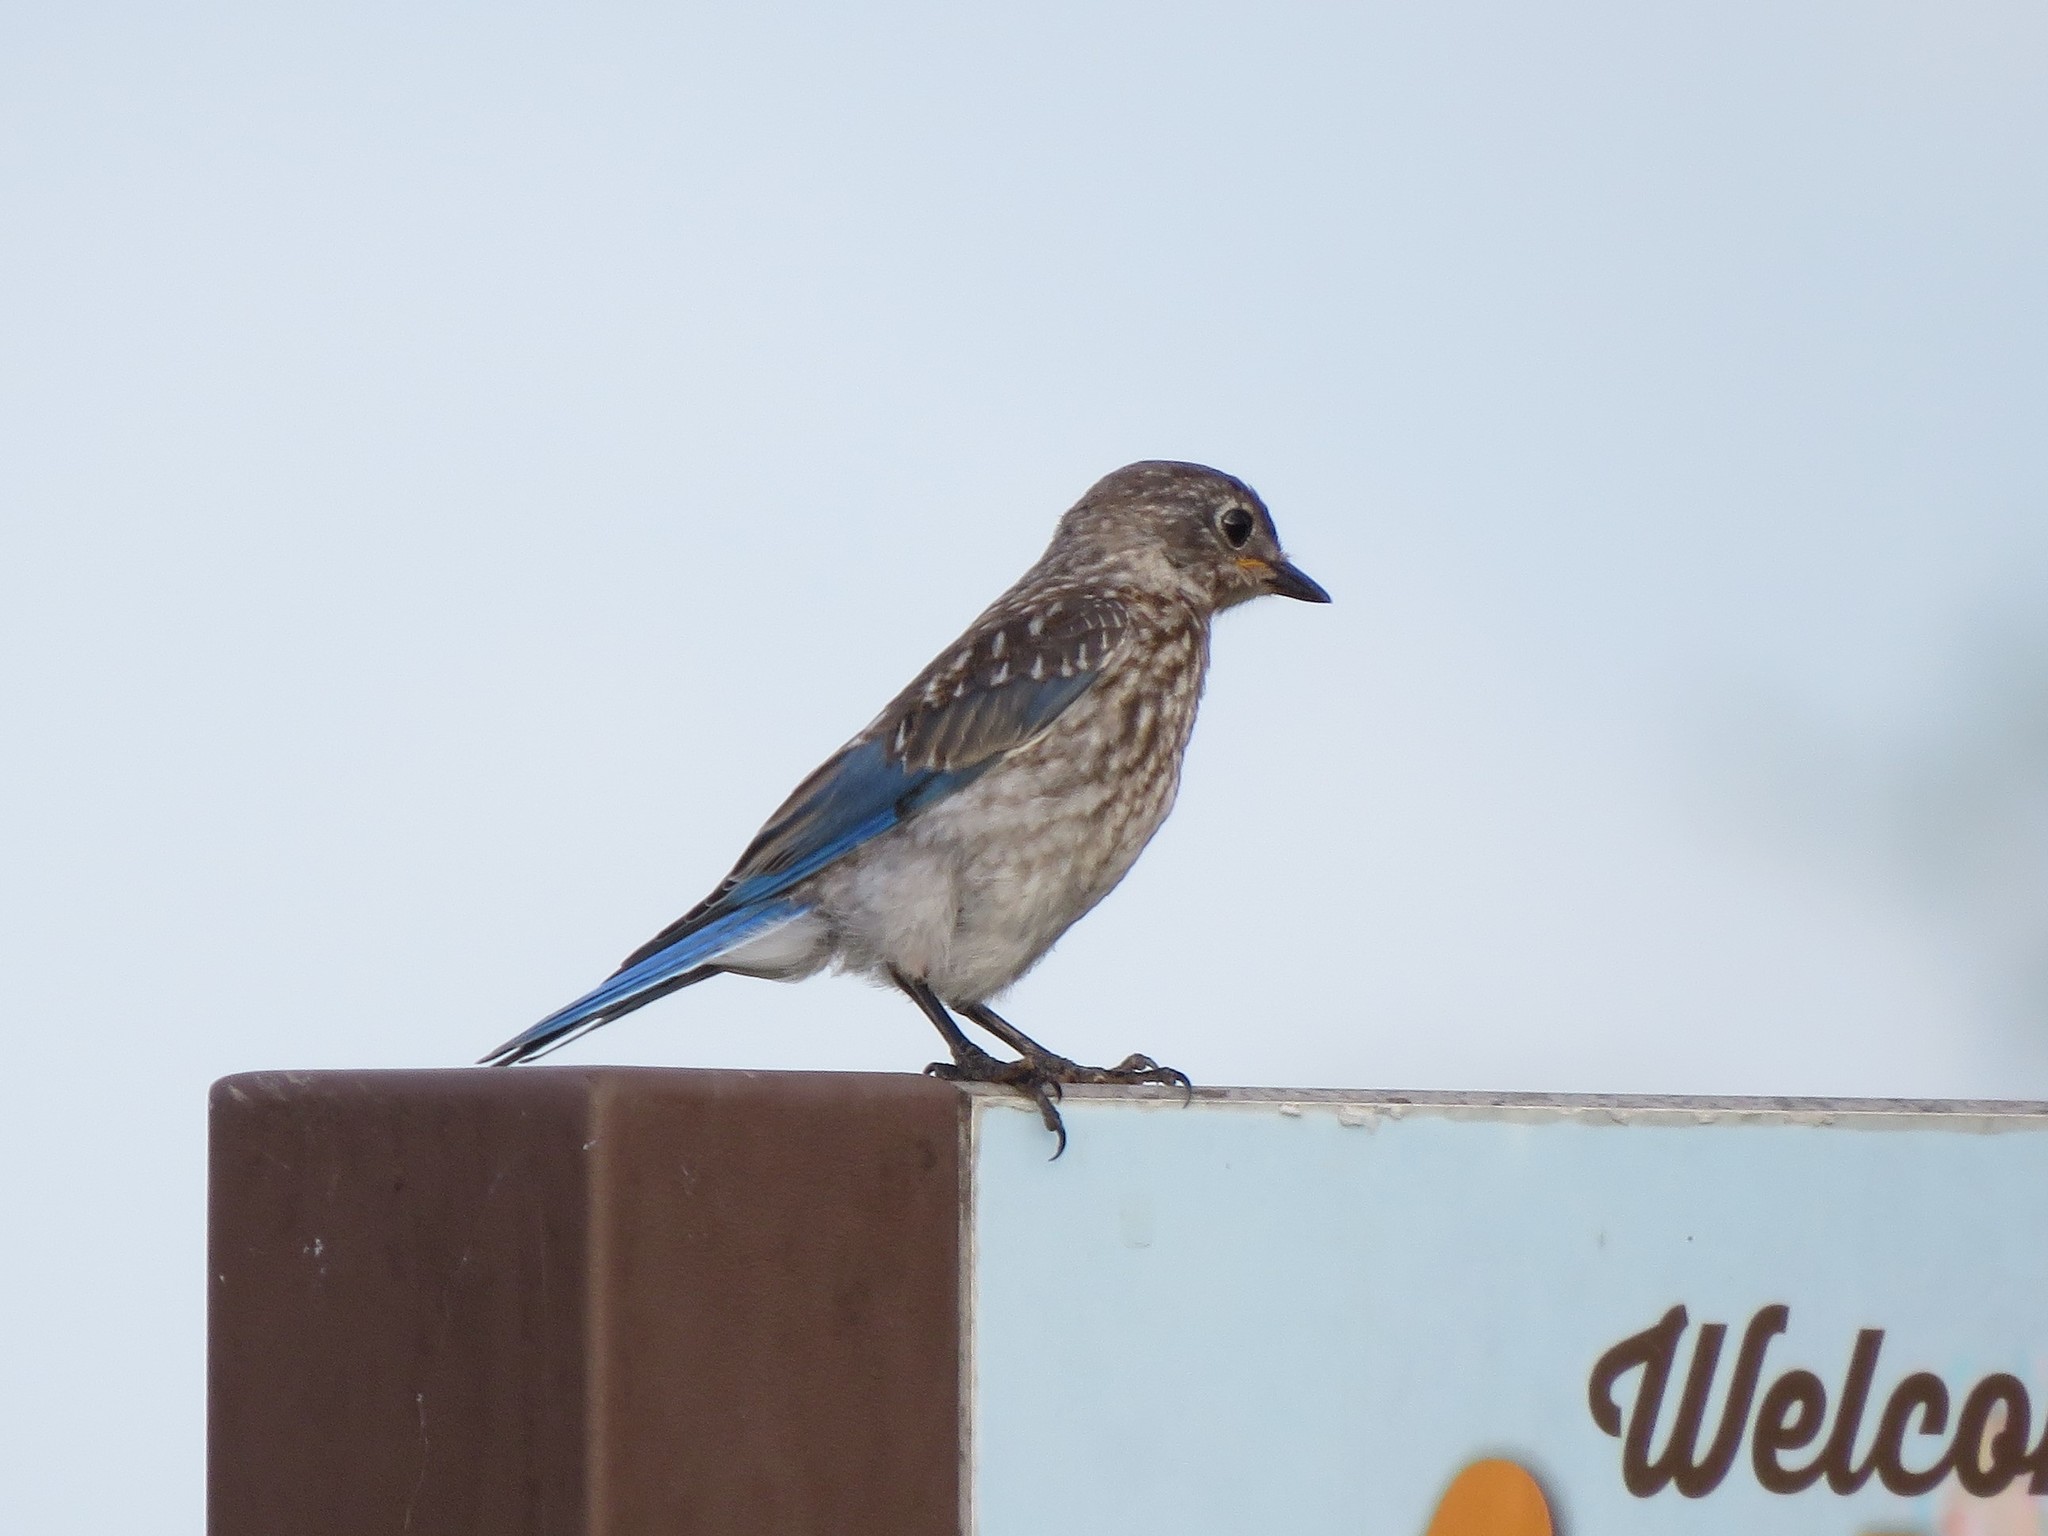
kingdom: Animalia
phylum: Chordata
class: Aves
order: Passeriformes
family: Turdidae
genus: Sialia
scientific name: Sialia sialis
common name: Eastern bluebird
